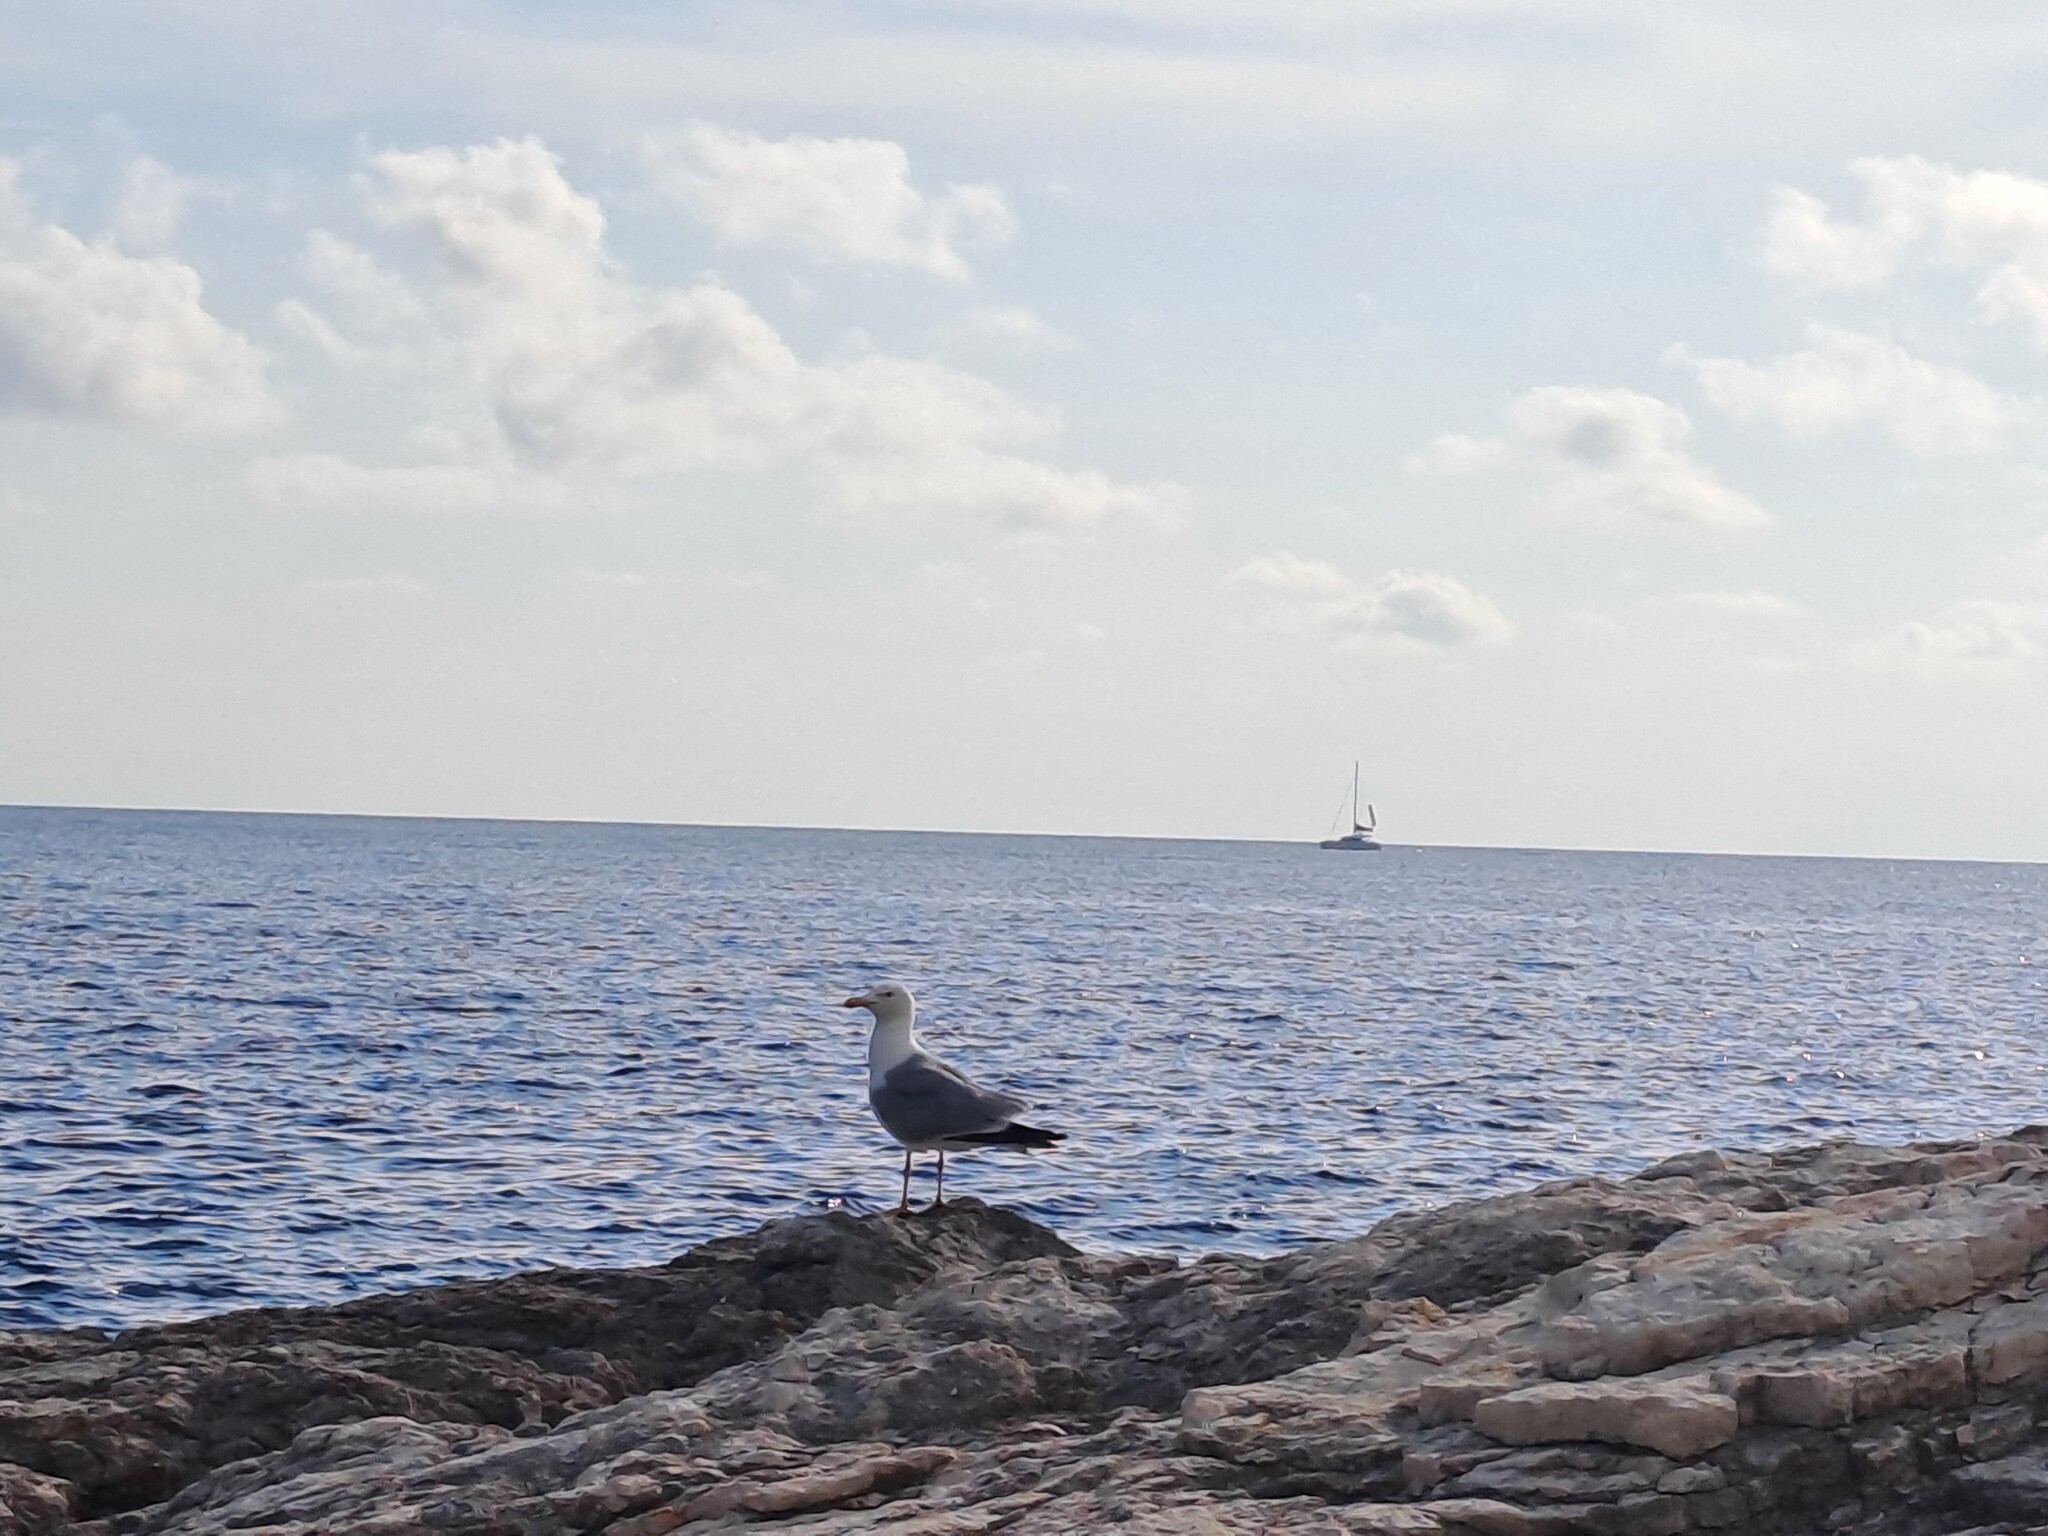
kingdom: Animalia
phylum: Chordata
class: Aves
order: Charadriiformes
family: Laridae
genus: Larus
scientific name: Larus michahellis
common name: Yellow-legged gull
